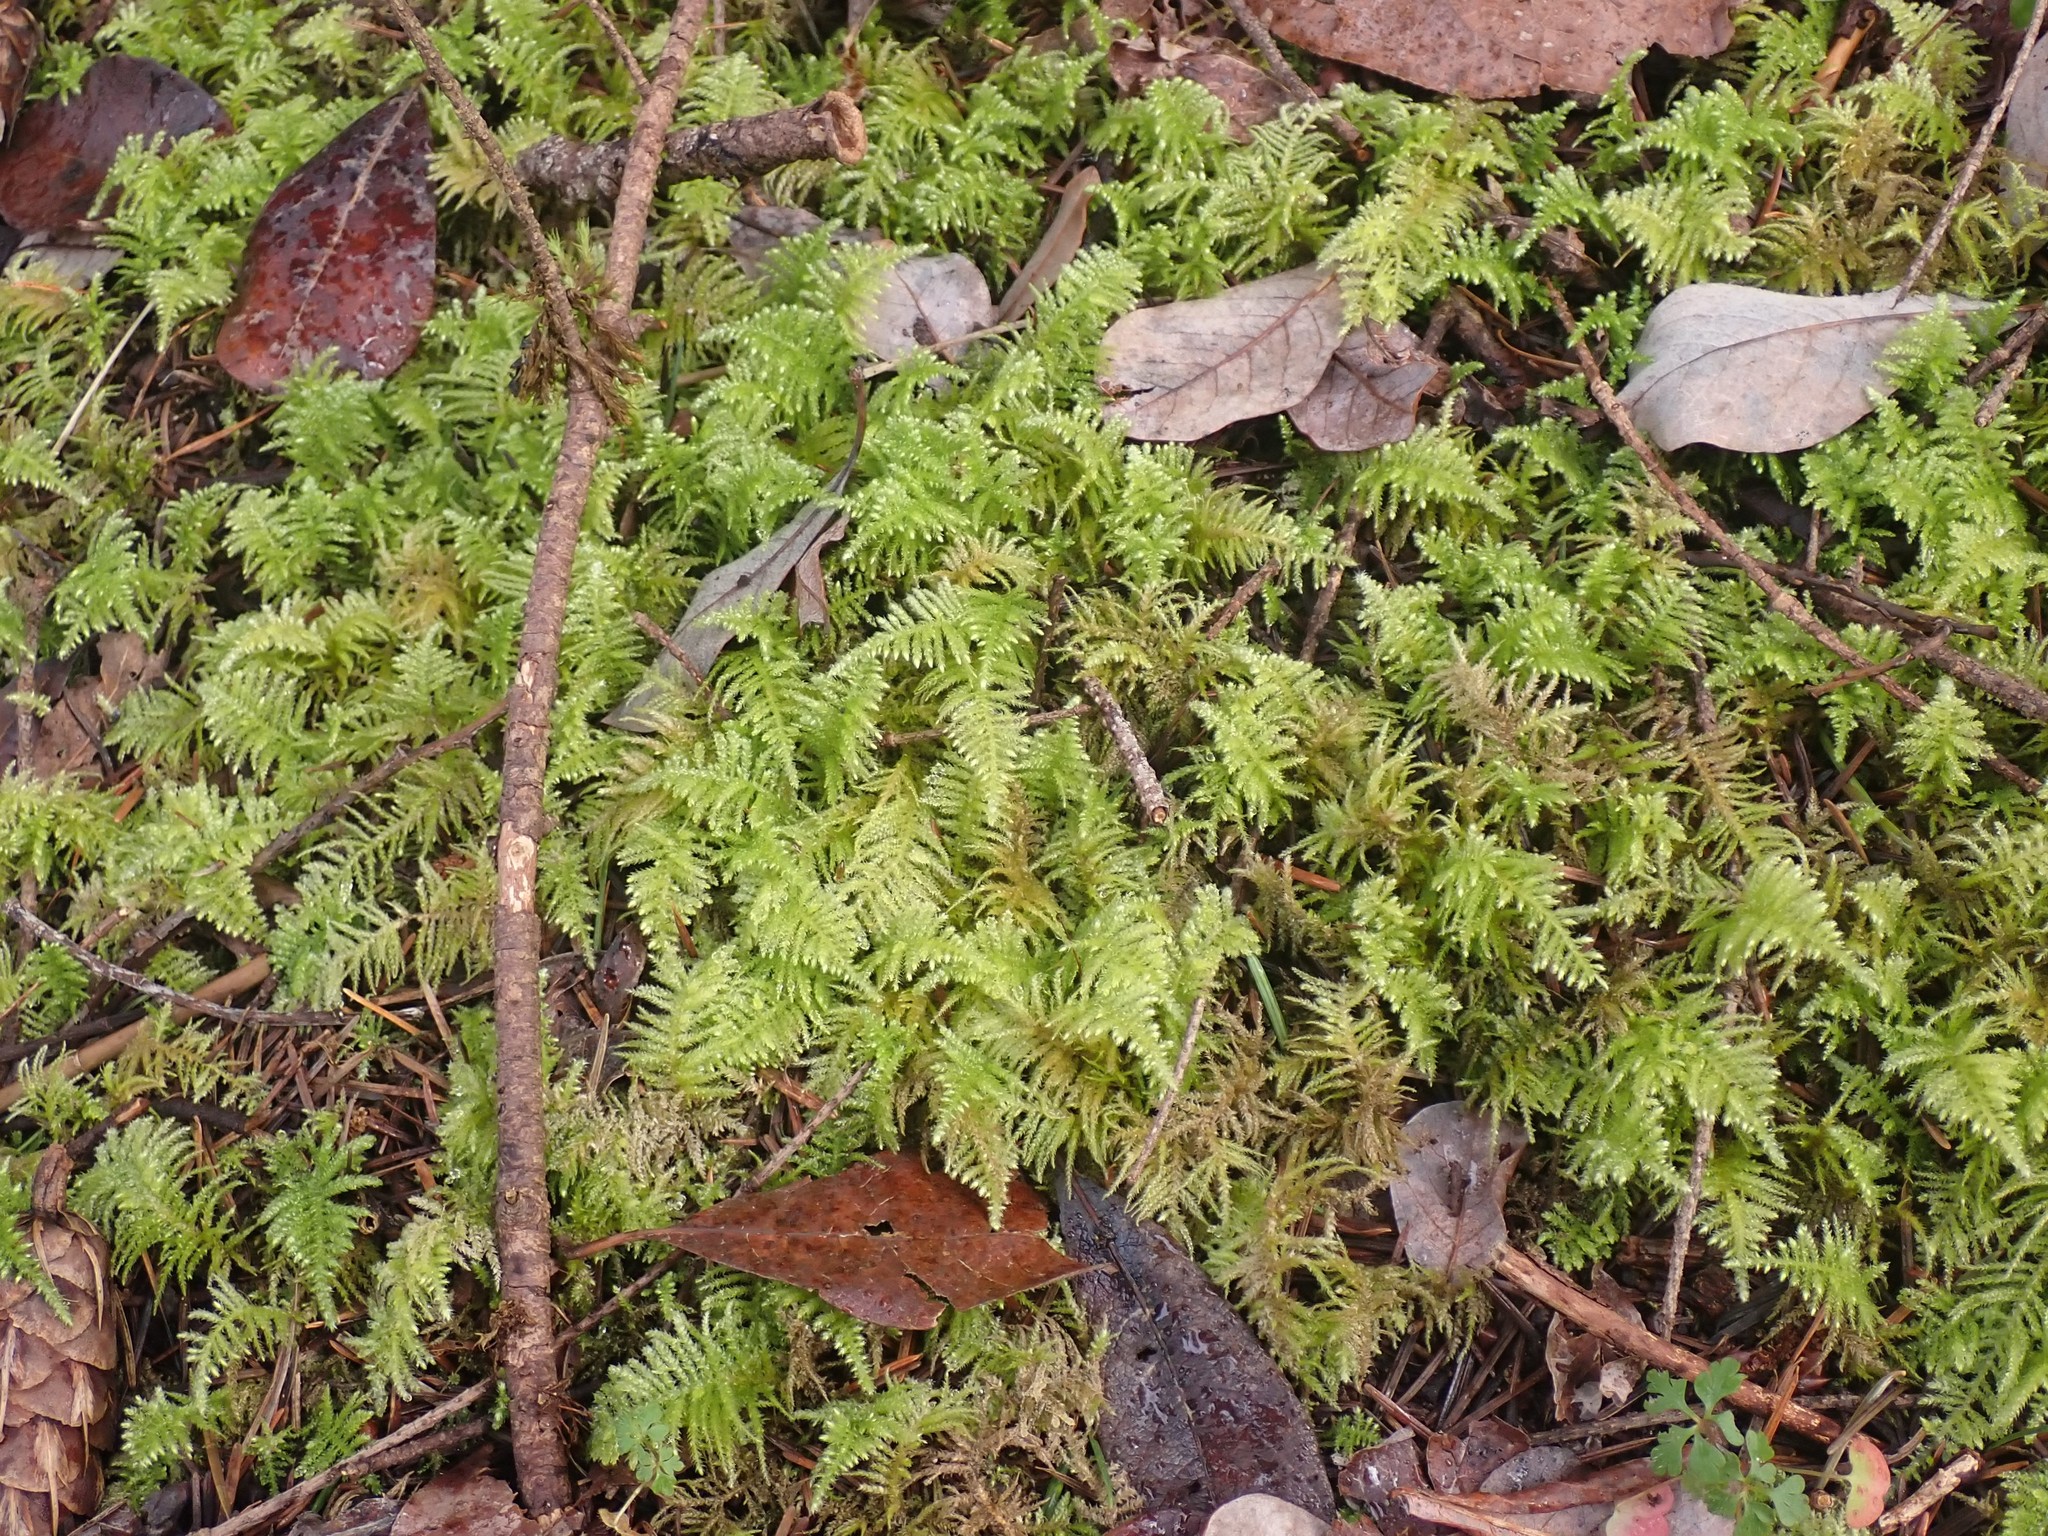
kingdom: Plantae
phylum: Bryophyta
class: Bryopsida
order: Hypnales
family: Brachytheciaceae
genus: Kindbergia
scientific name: Kindbergia oregana
